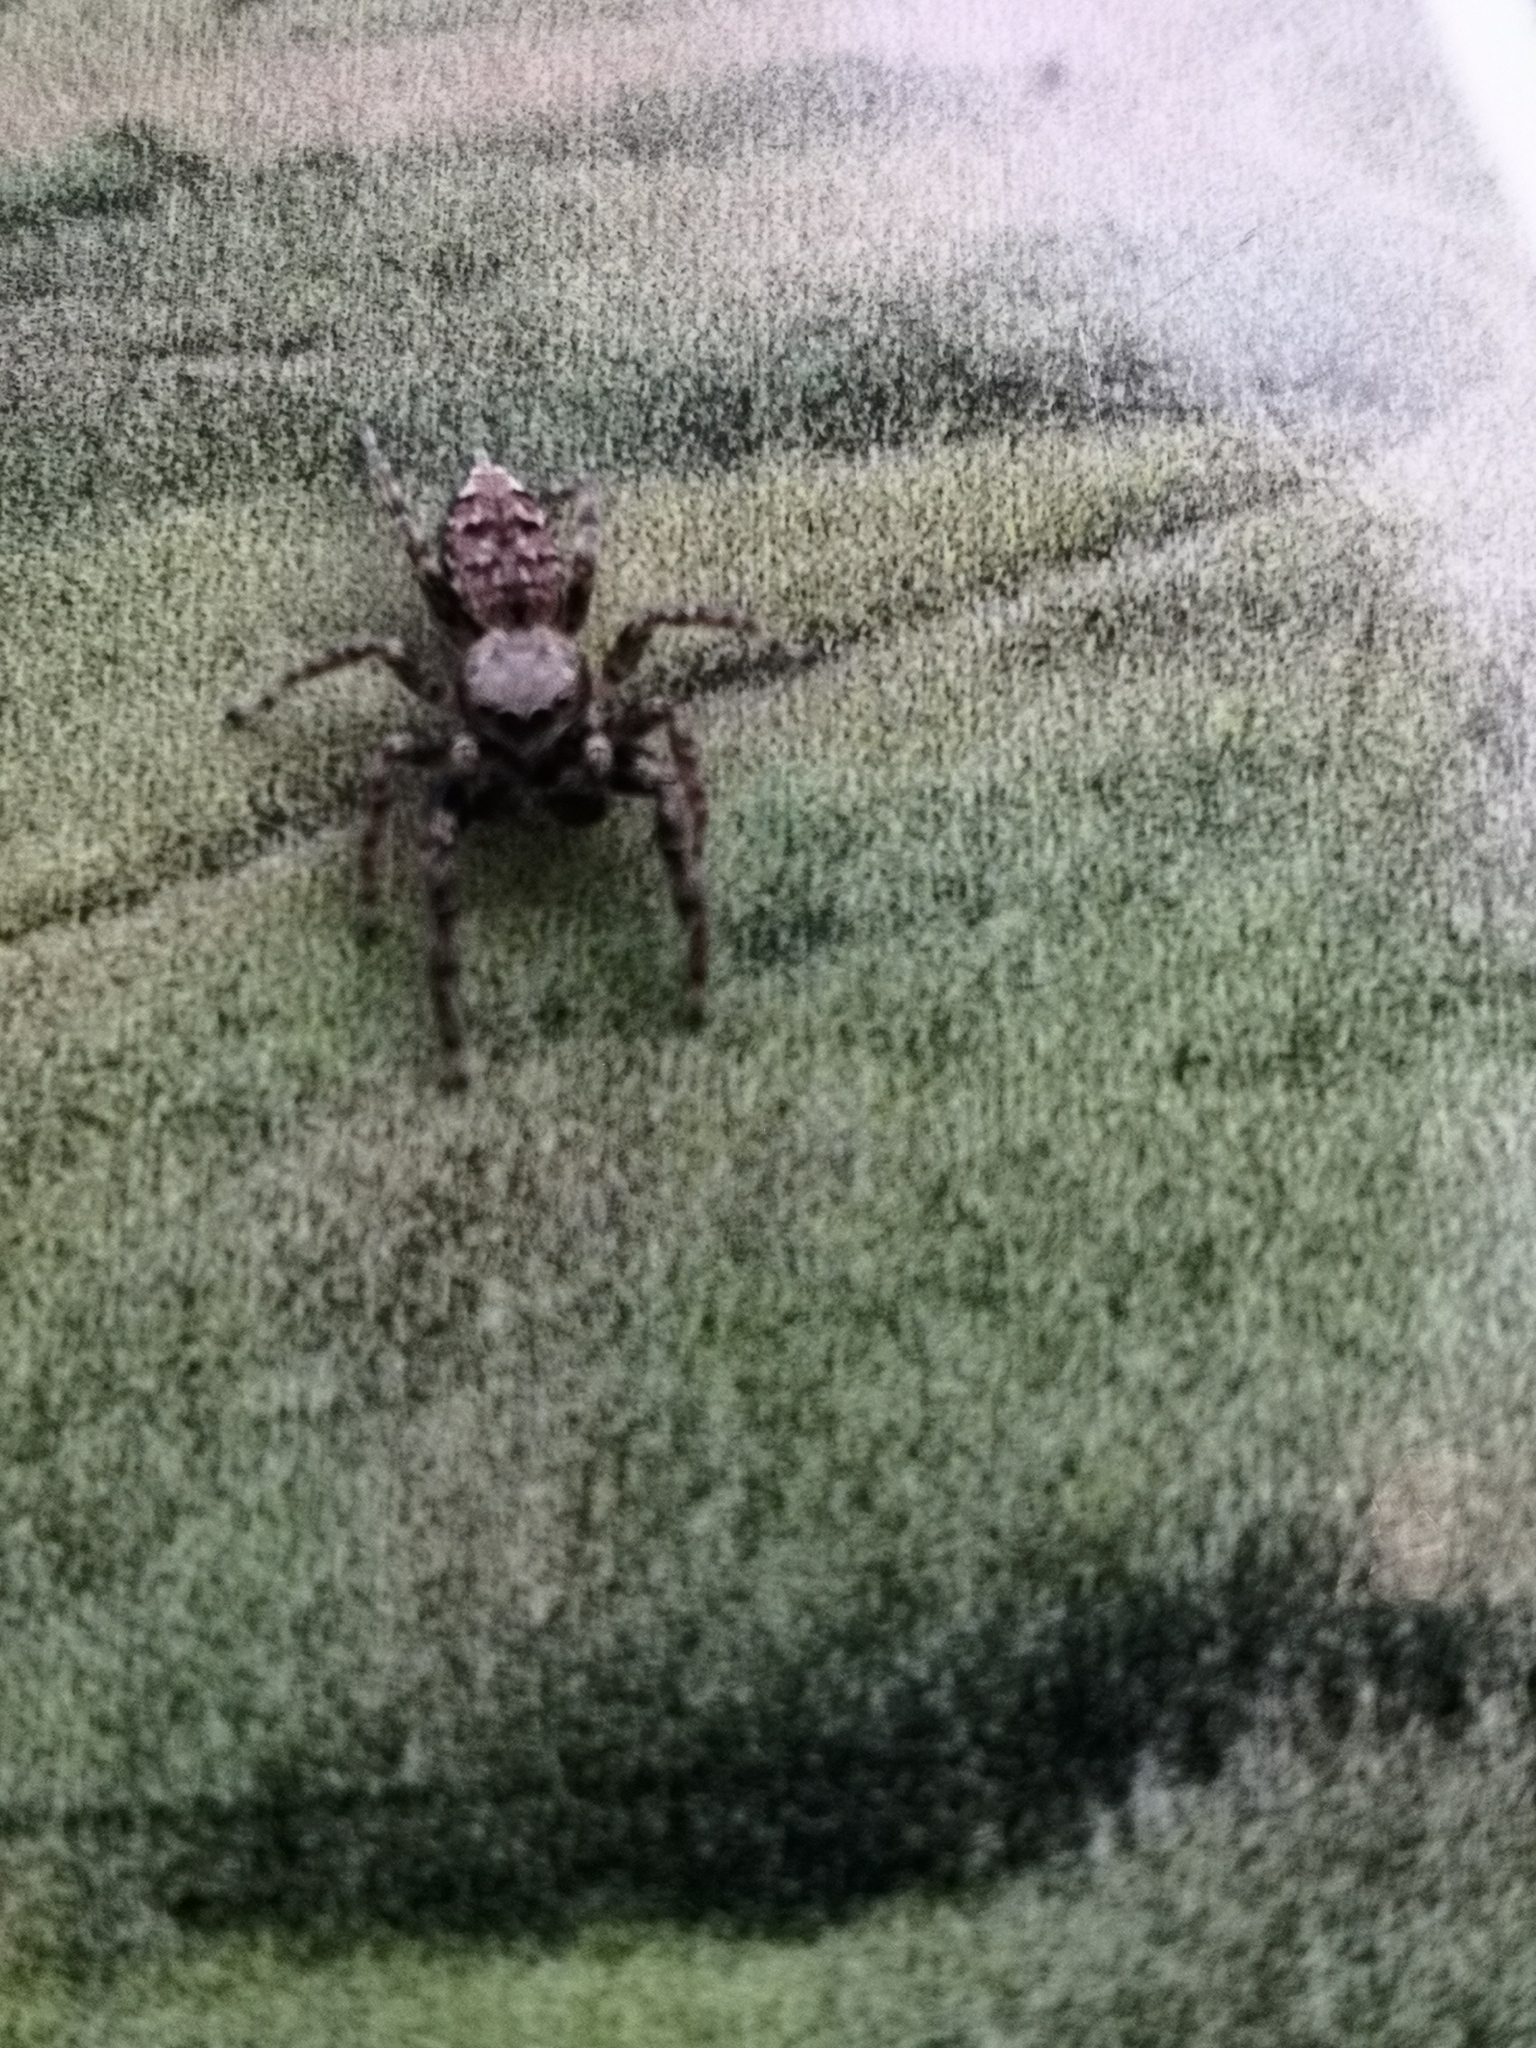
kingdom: Animalia
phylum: Arthropoda
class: Arachnida
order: Araneae
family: Salticidae
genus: Marpissa
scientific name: Marpissa muscosa
